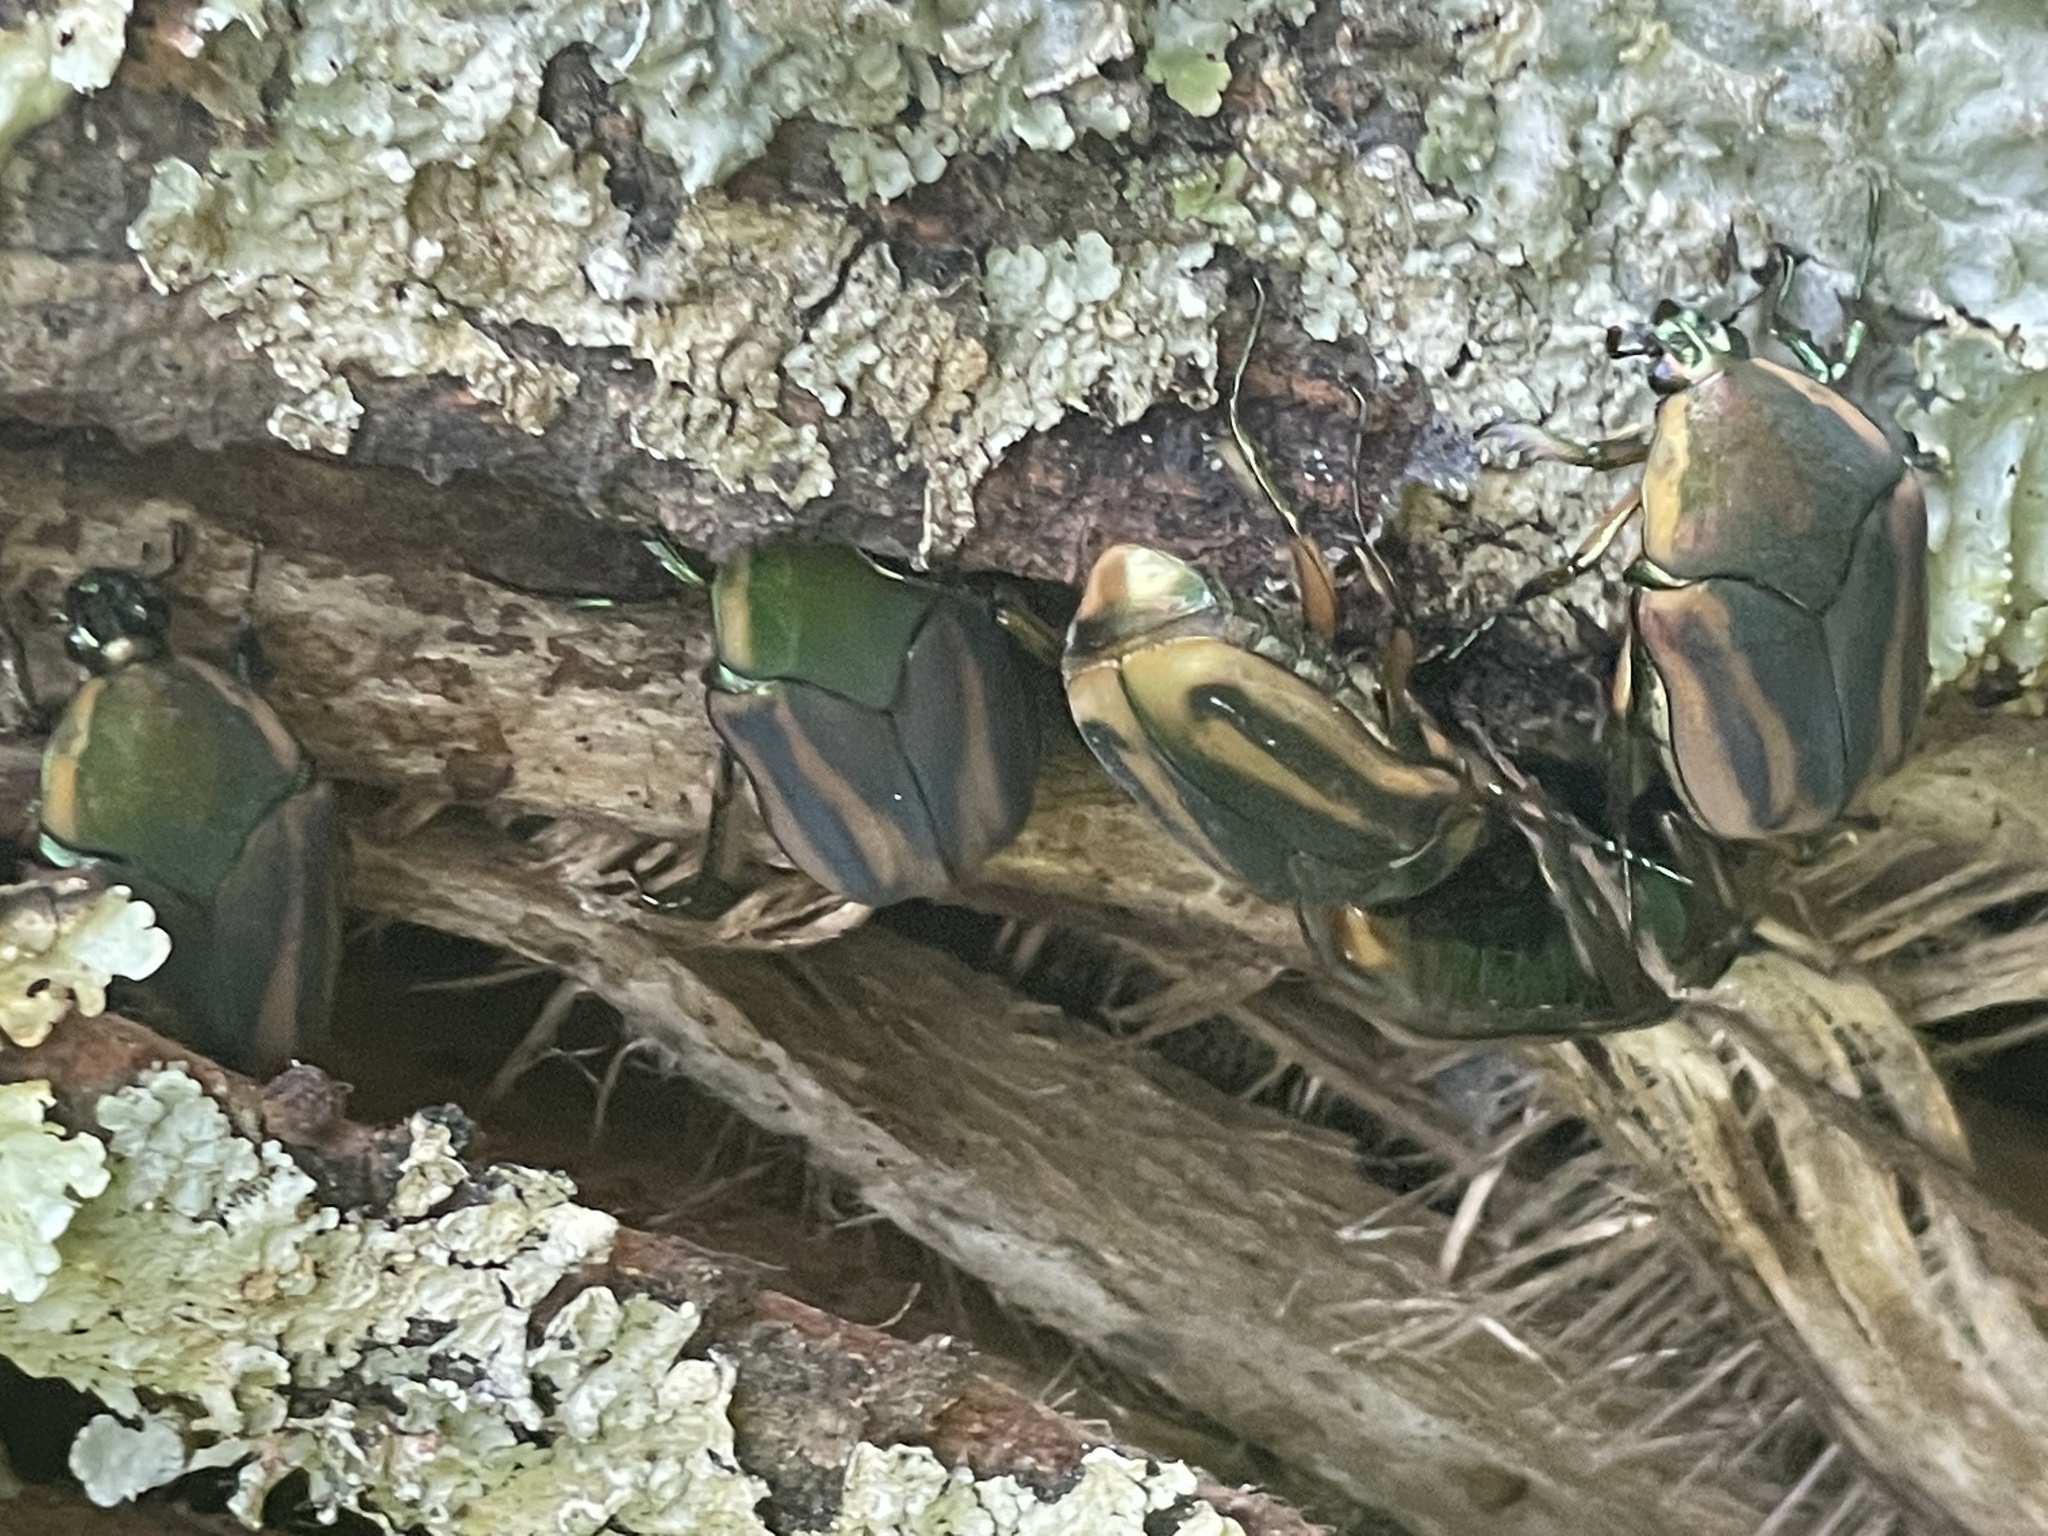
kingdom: Animalia
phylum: Arthropoda
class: Insecta
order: Coleoptera
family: Scarabaeidae
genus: Cotinis
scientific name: Cotinis nitida
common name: Common green june beetle
